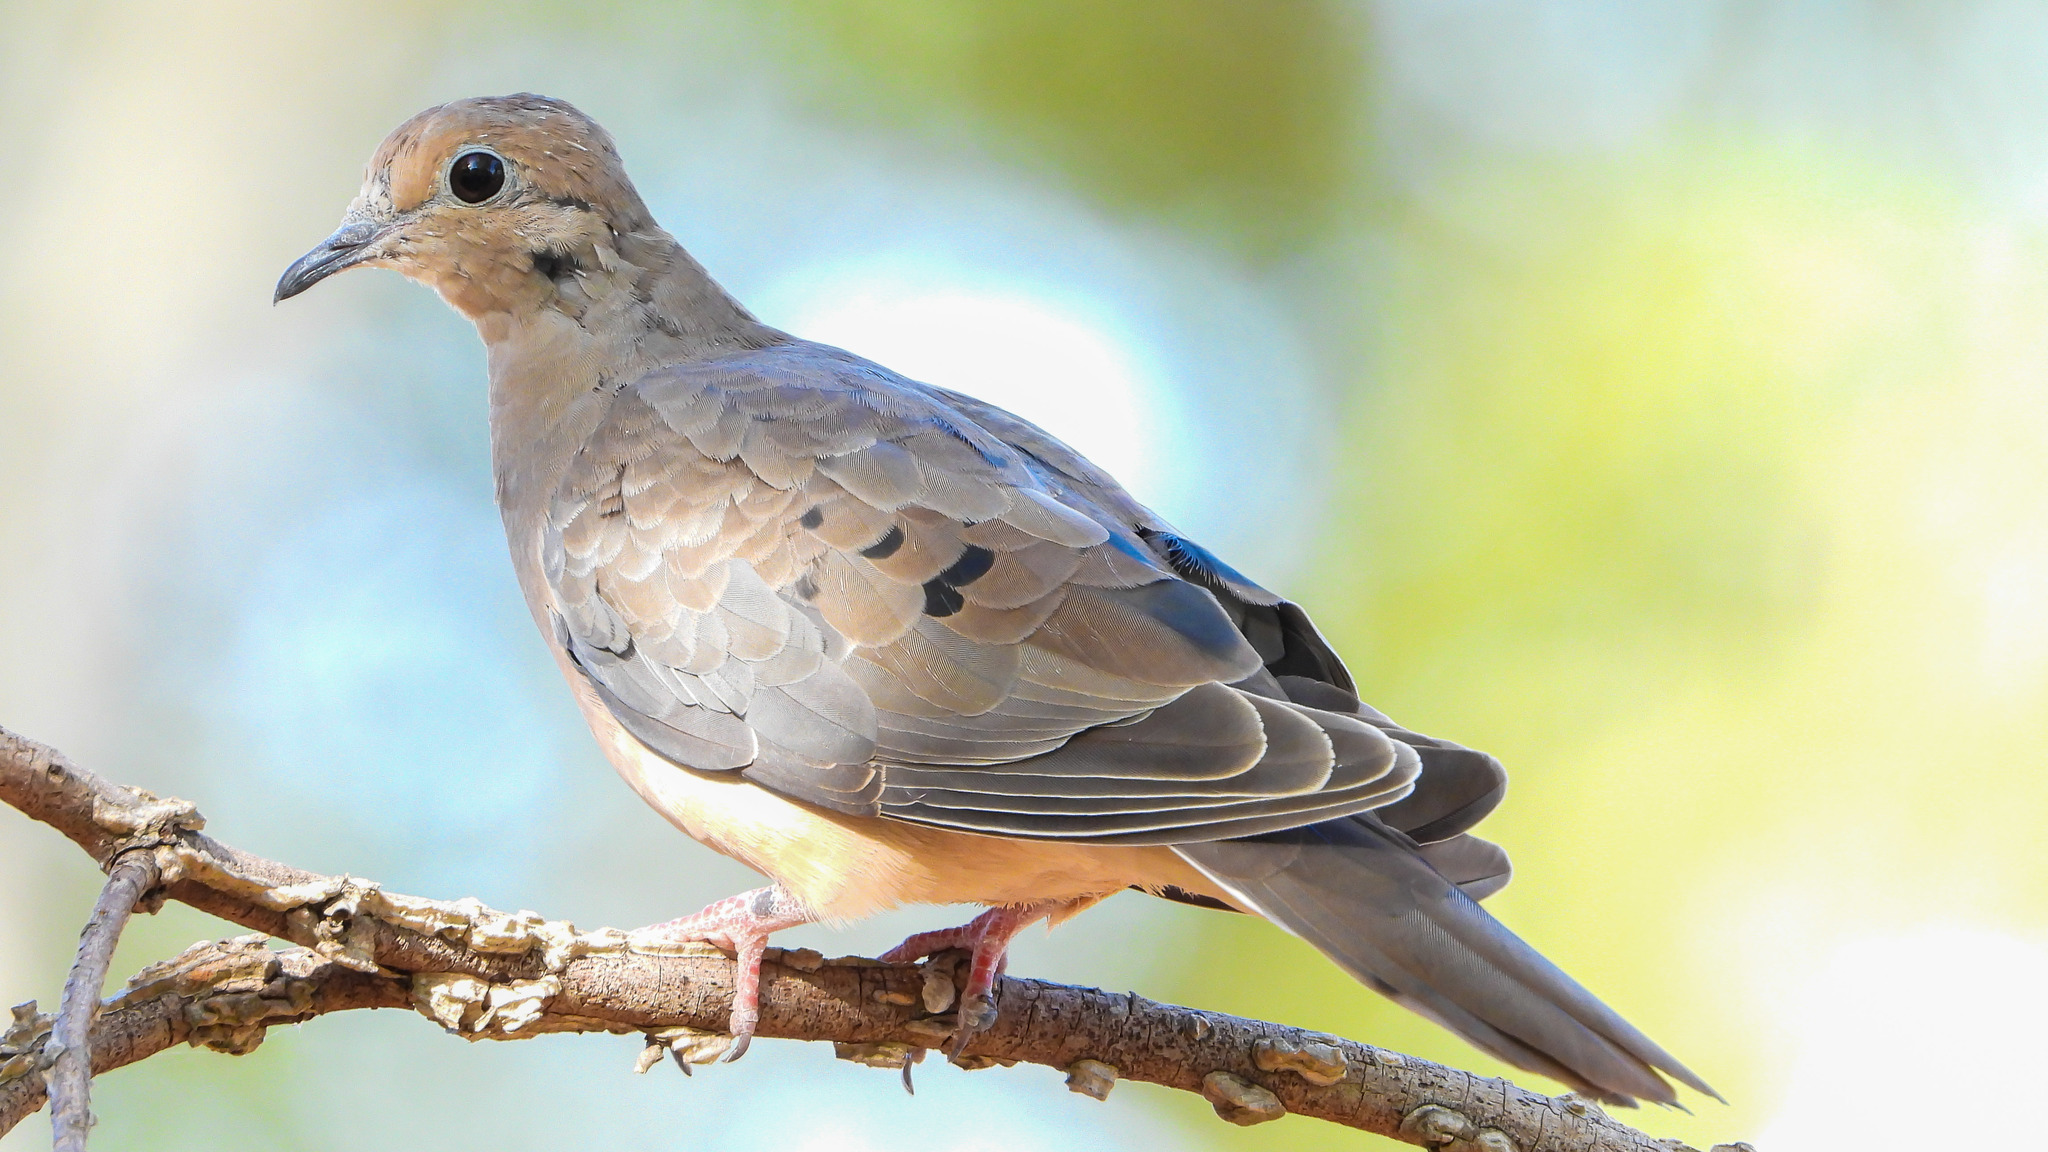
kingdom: Animalia
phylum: Chordata
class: Aves
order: Columbiformes
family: Columbidae
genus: Zenaida
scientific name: Zenaida macroura
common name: Mourning dove
